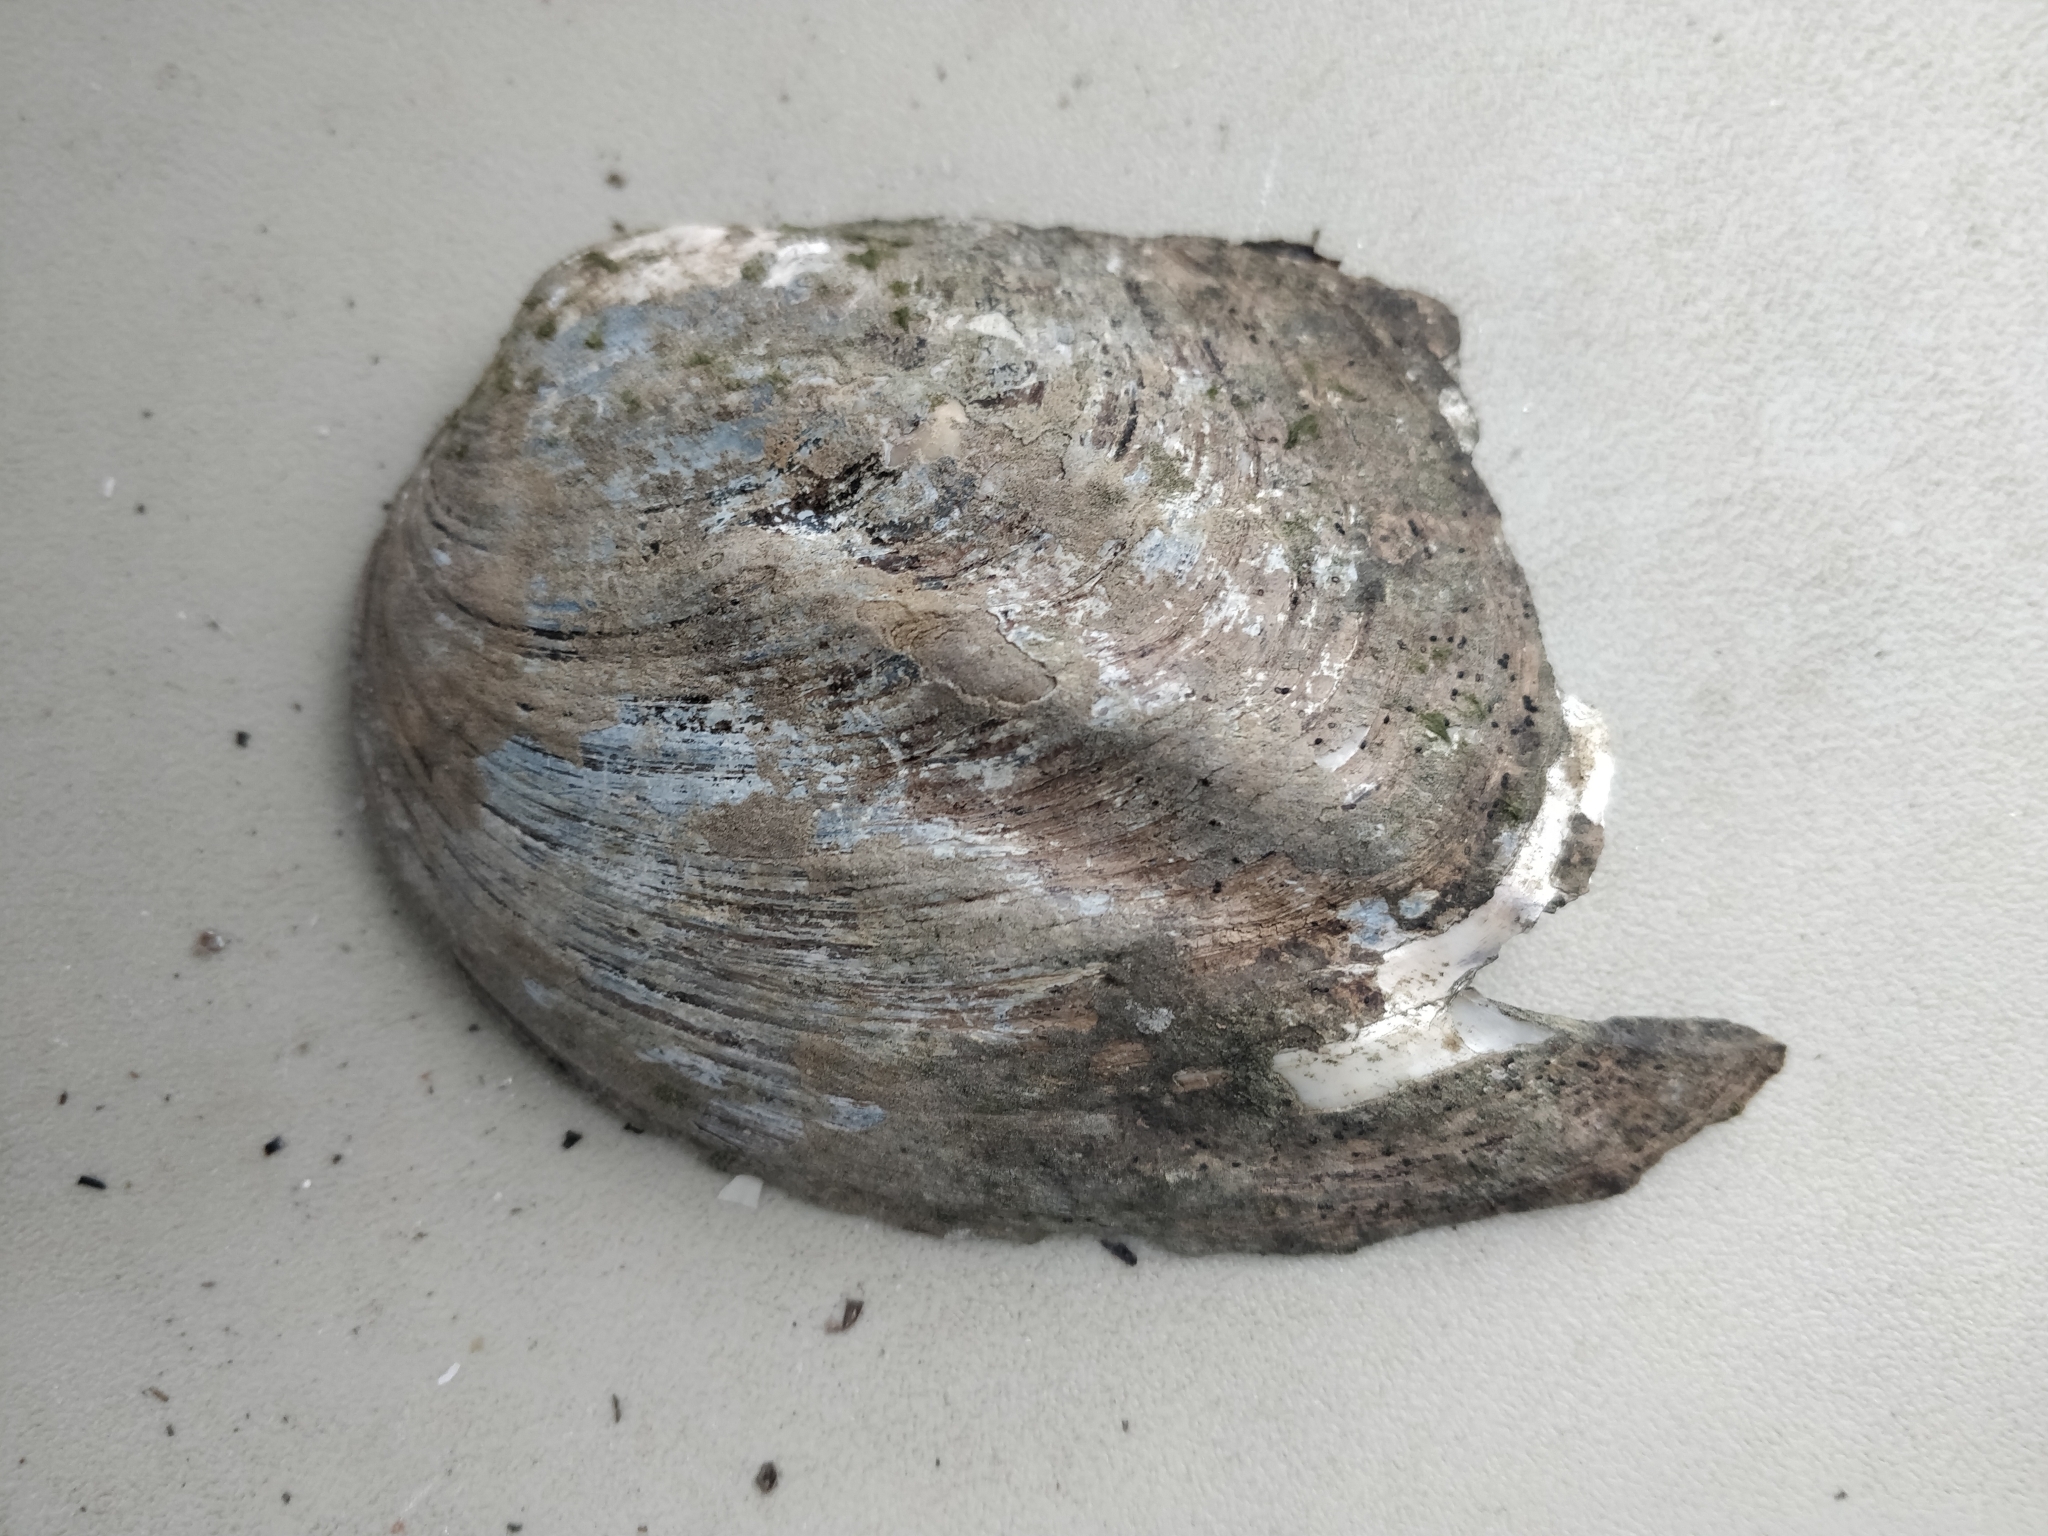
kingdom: Animalia
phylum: Mollusca
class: Bivalvia
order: Unionida
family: Unionidae
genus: Amblema
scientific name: Amblema plicata
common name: Threeridge
